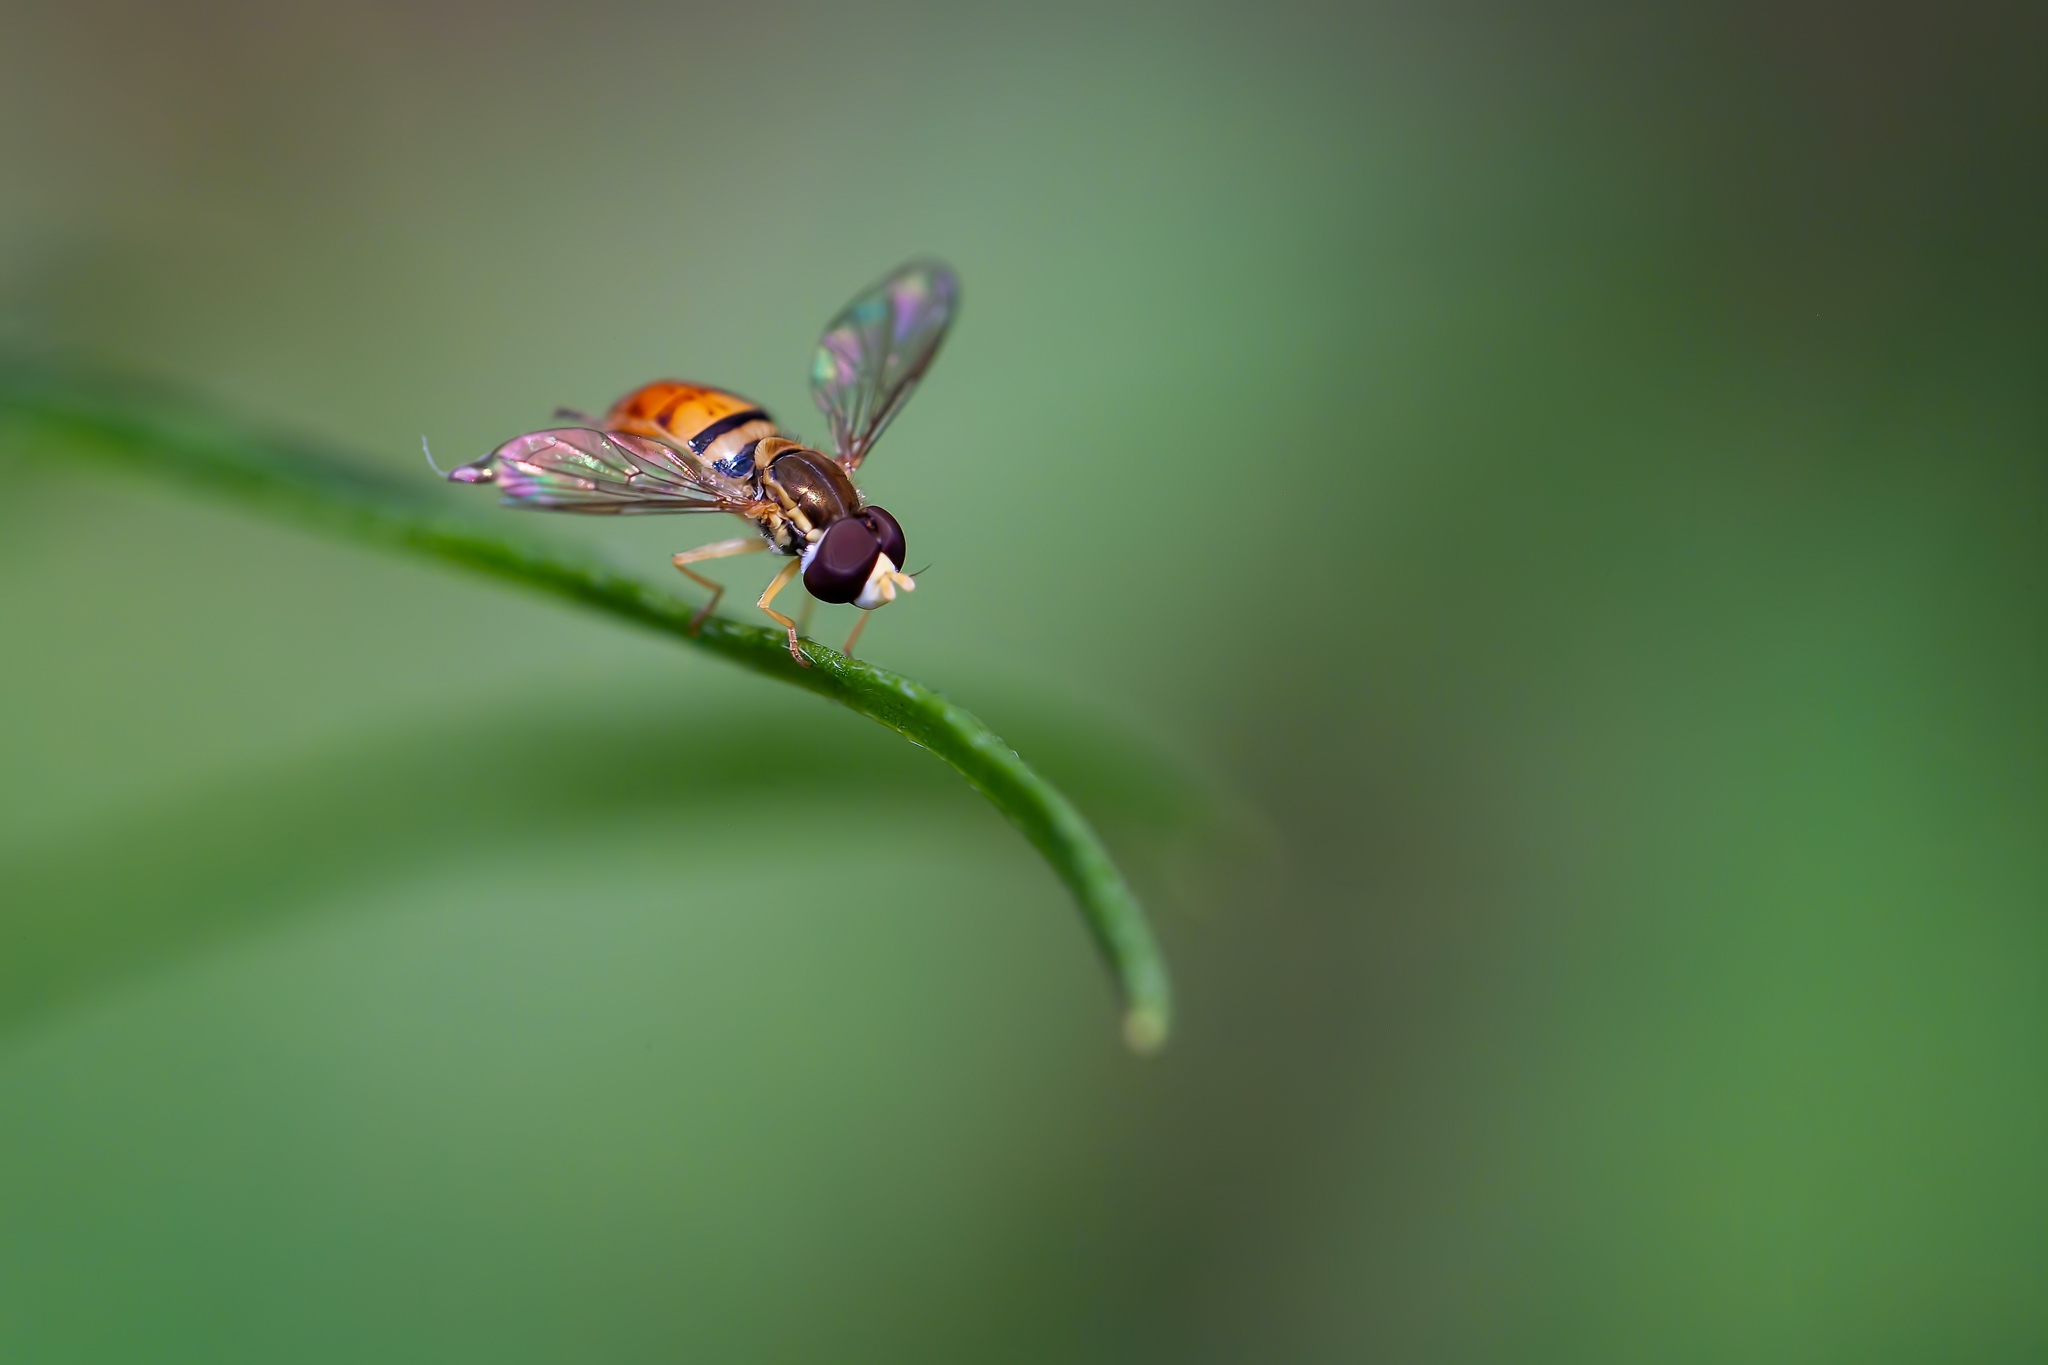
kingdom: Animalia
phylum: Arthropoda
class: Insecta
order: Diptera
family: Syrphidae
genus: Toxomerus
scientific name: Toxomerus floralis
